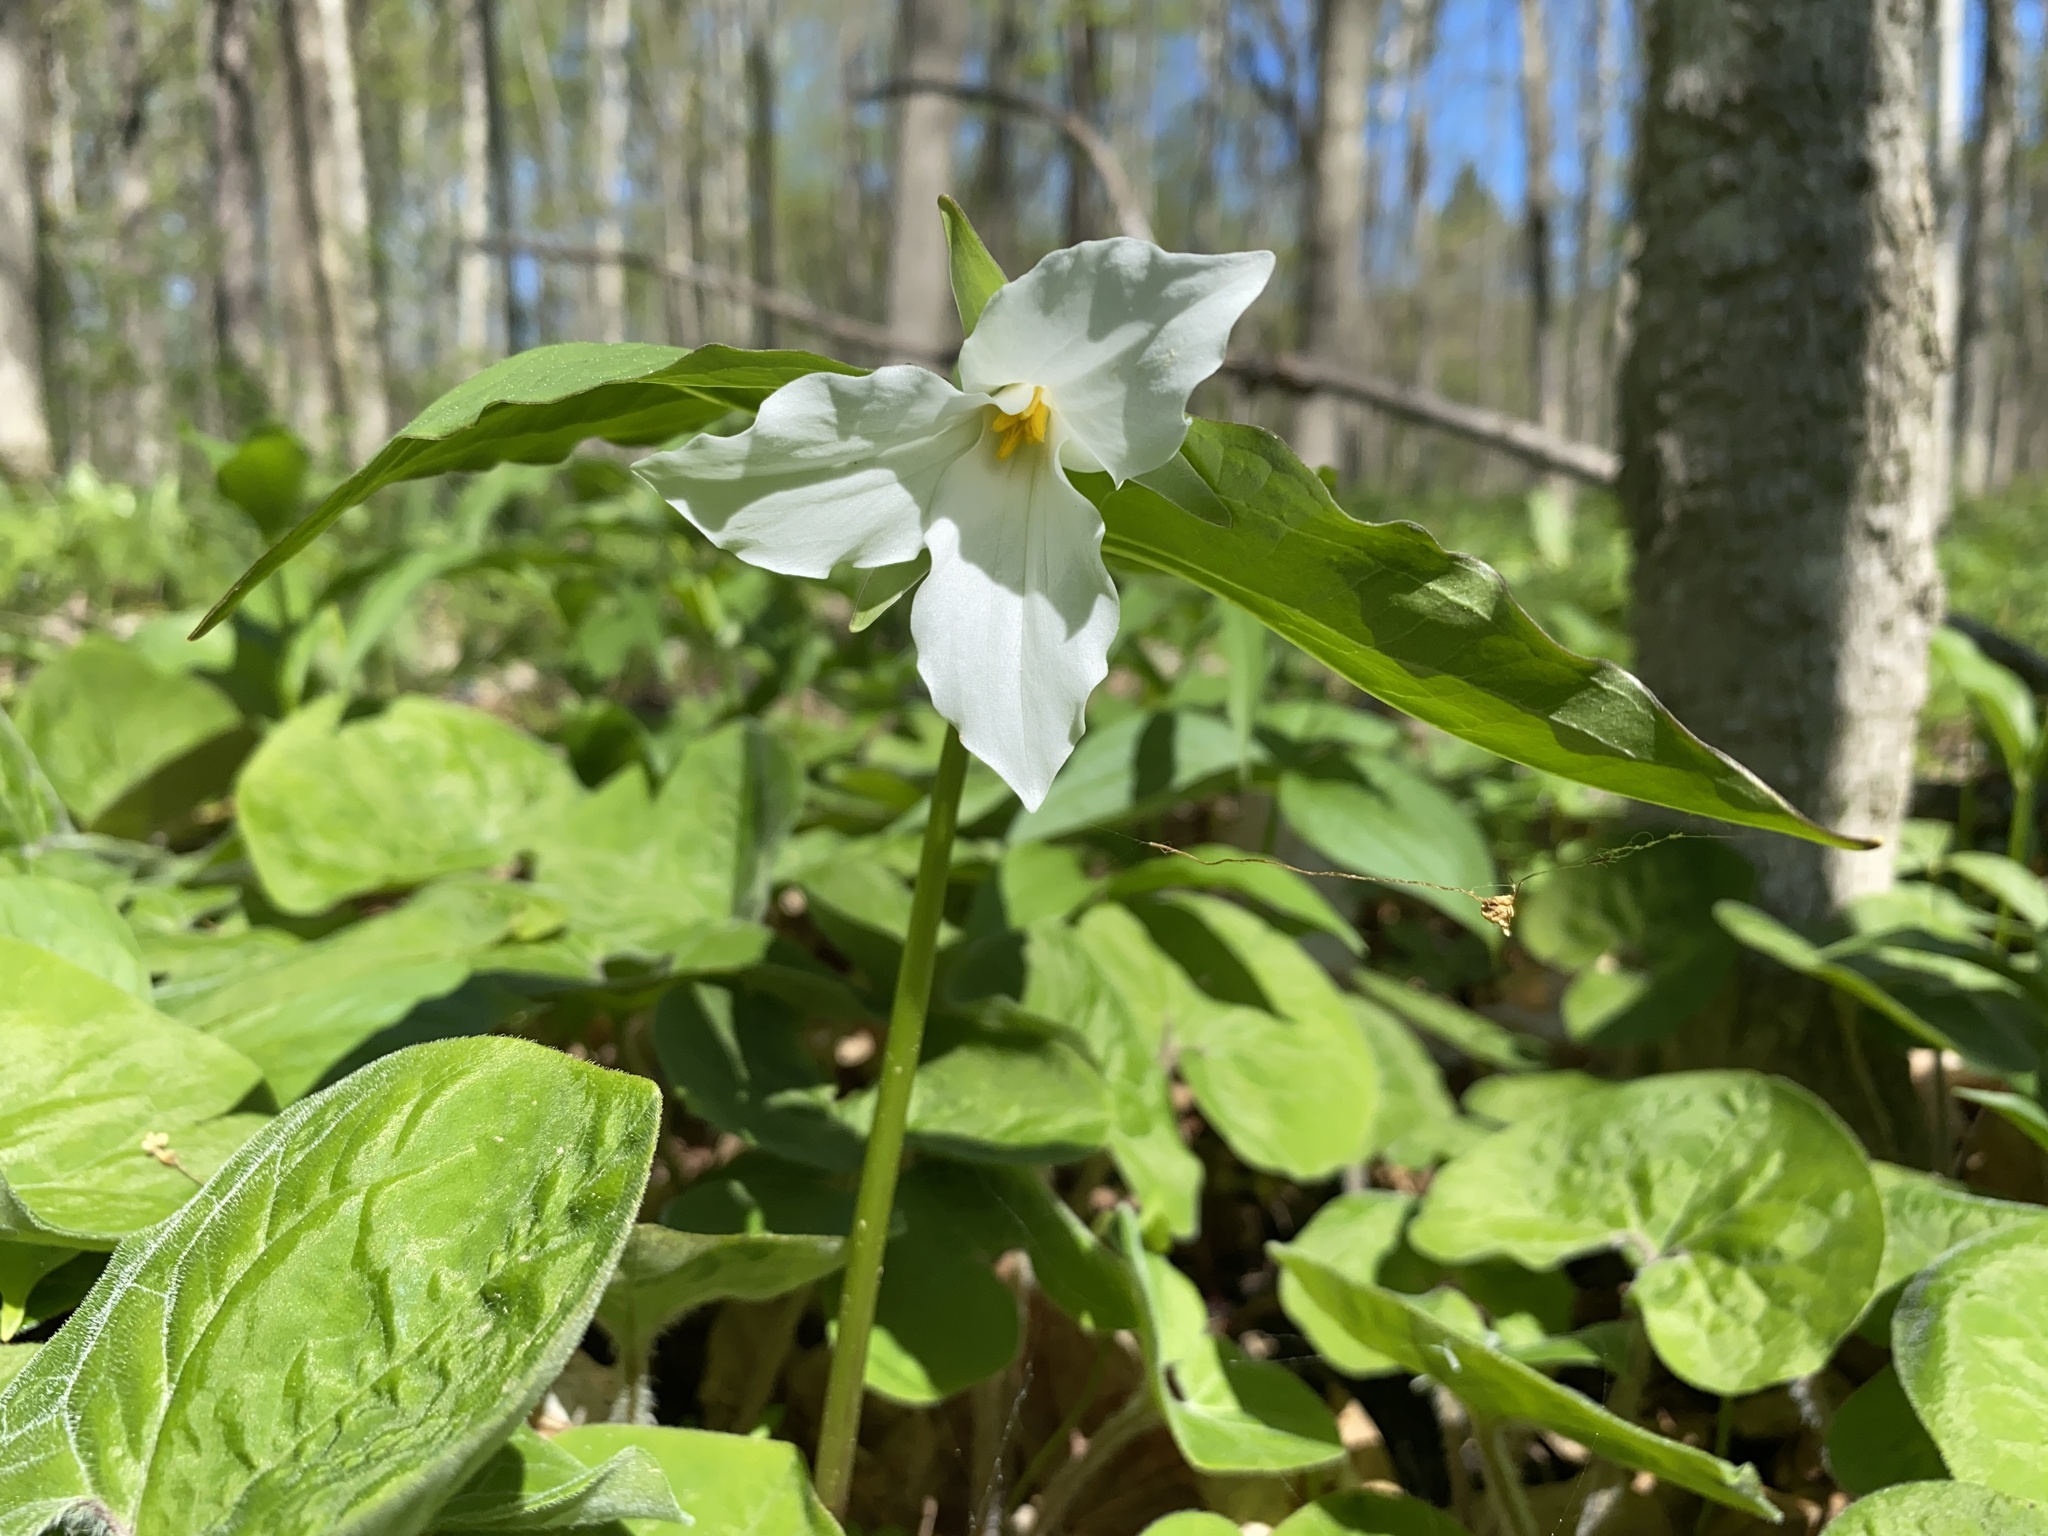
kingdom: Plantae
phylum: Tracheophyta
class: Liliopsida
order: Liliales
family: Melanthiaceae
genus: Trillium
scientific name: Trillium grandiflorum
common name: Great white trillium
